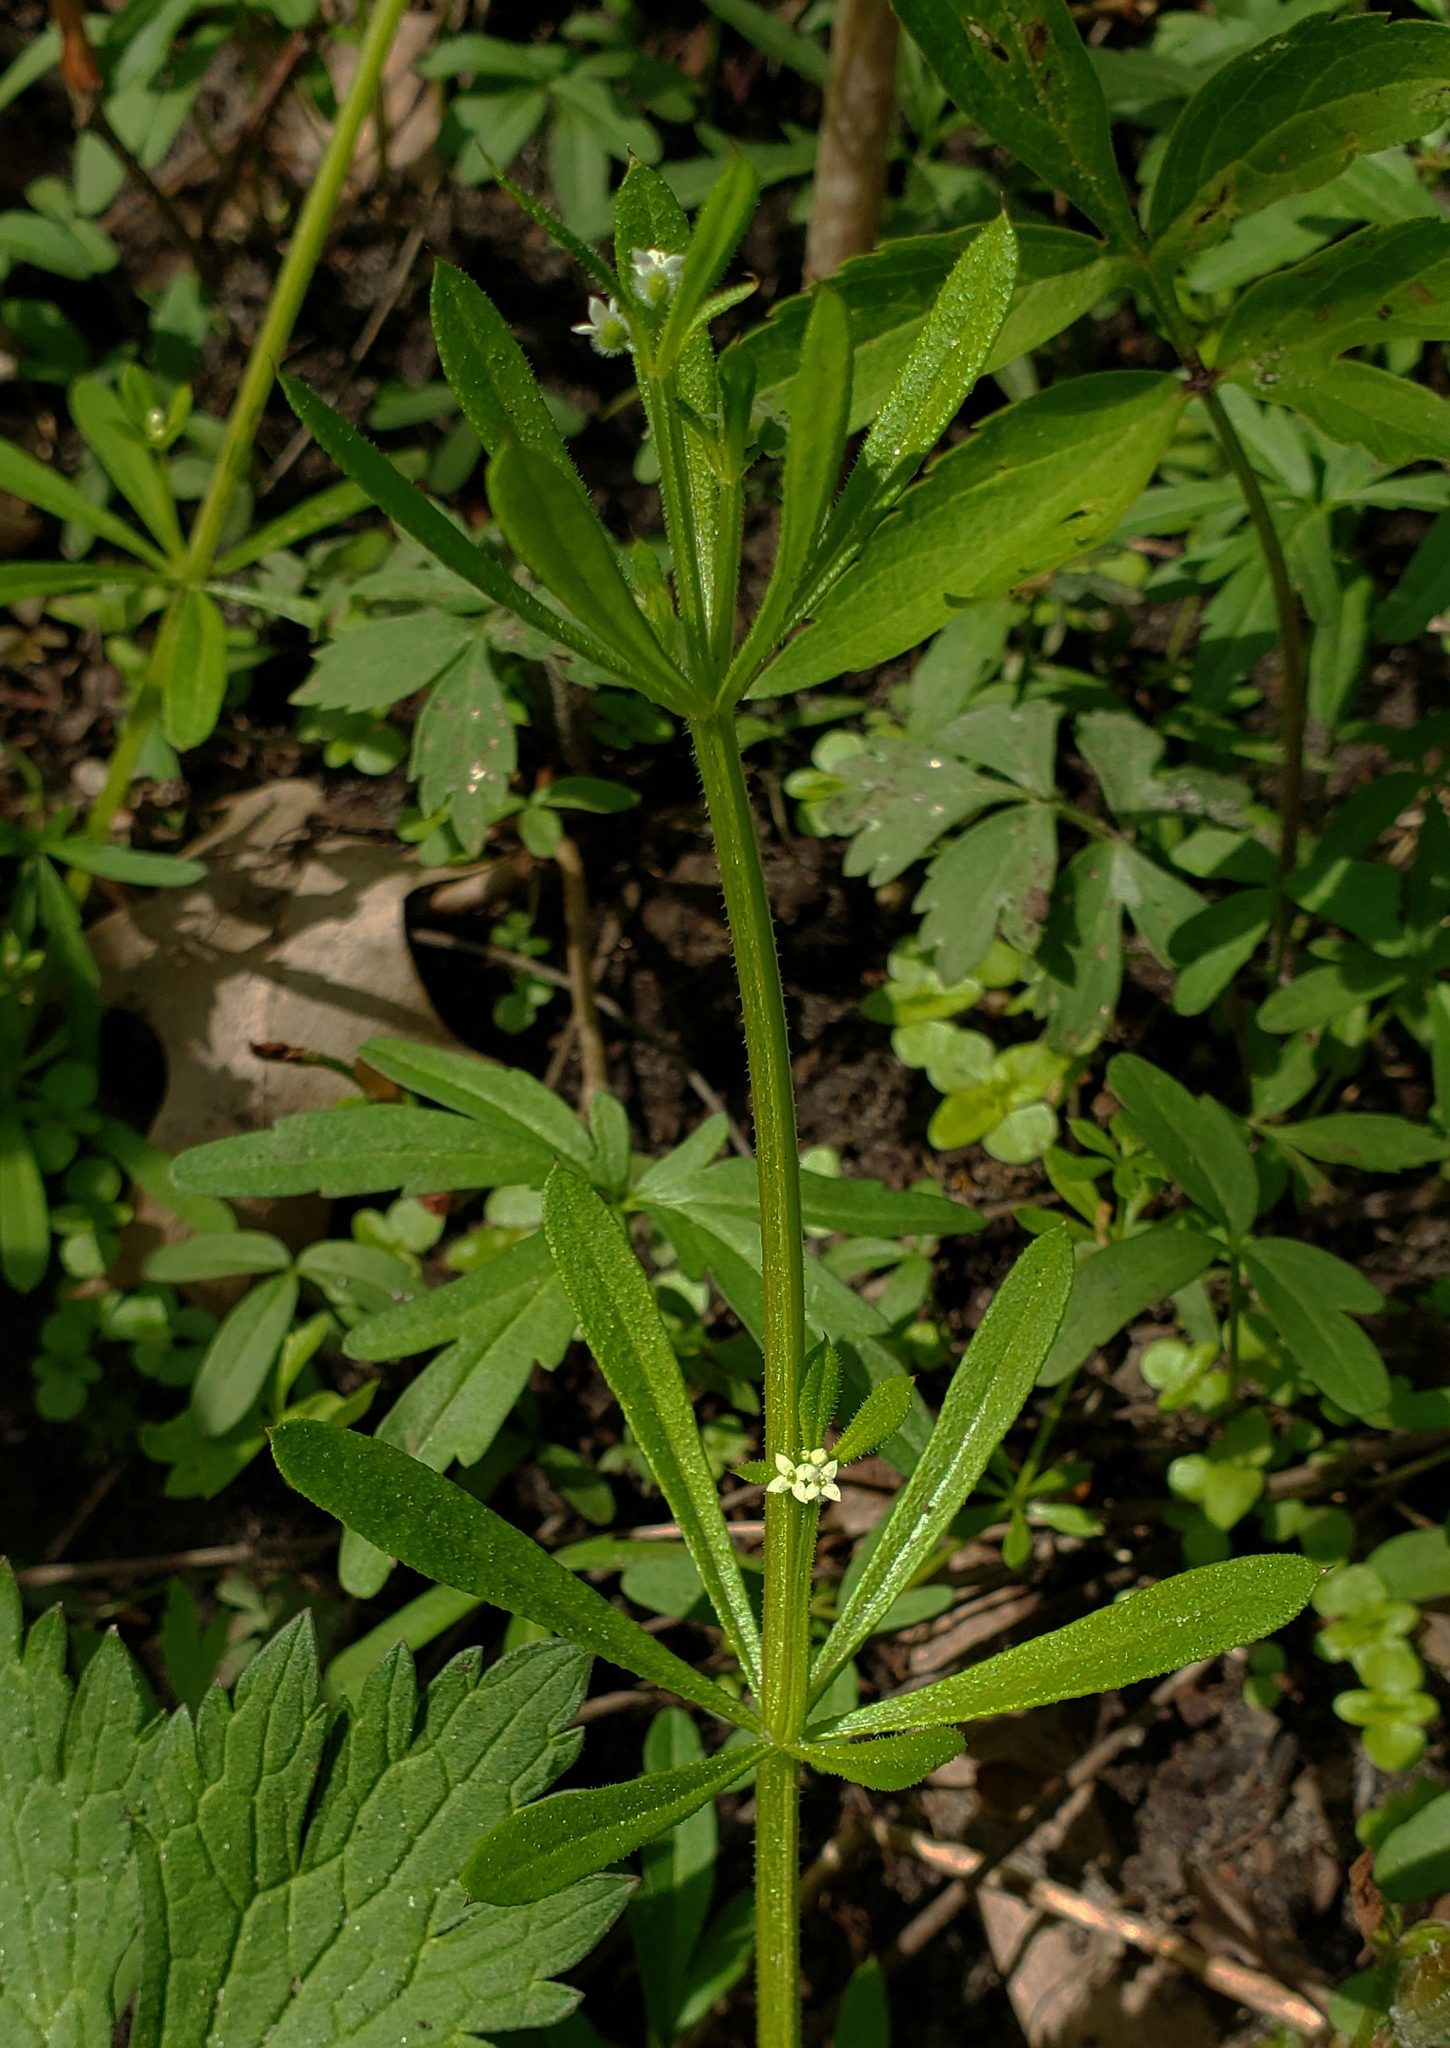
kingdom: Plantae
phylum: Tracheophyta
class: Magnoliopsida
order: Gentianales
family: Rubiaceae
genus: Galium
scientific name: Galium aparine
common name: Cleavers
